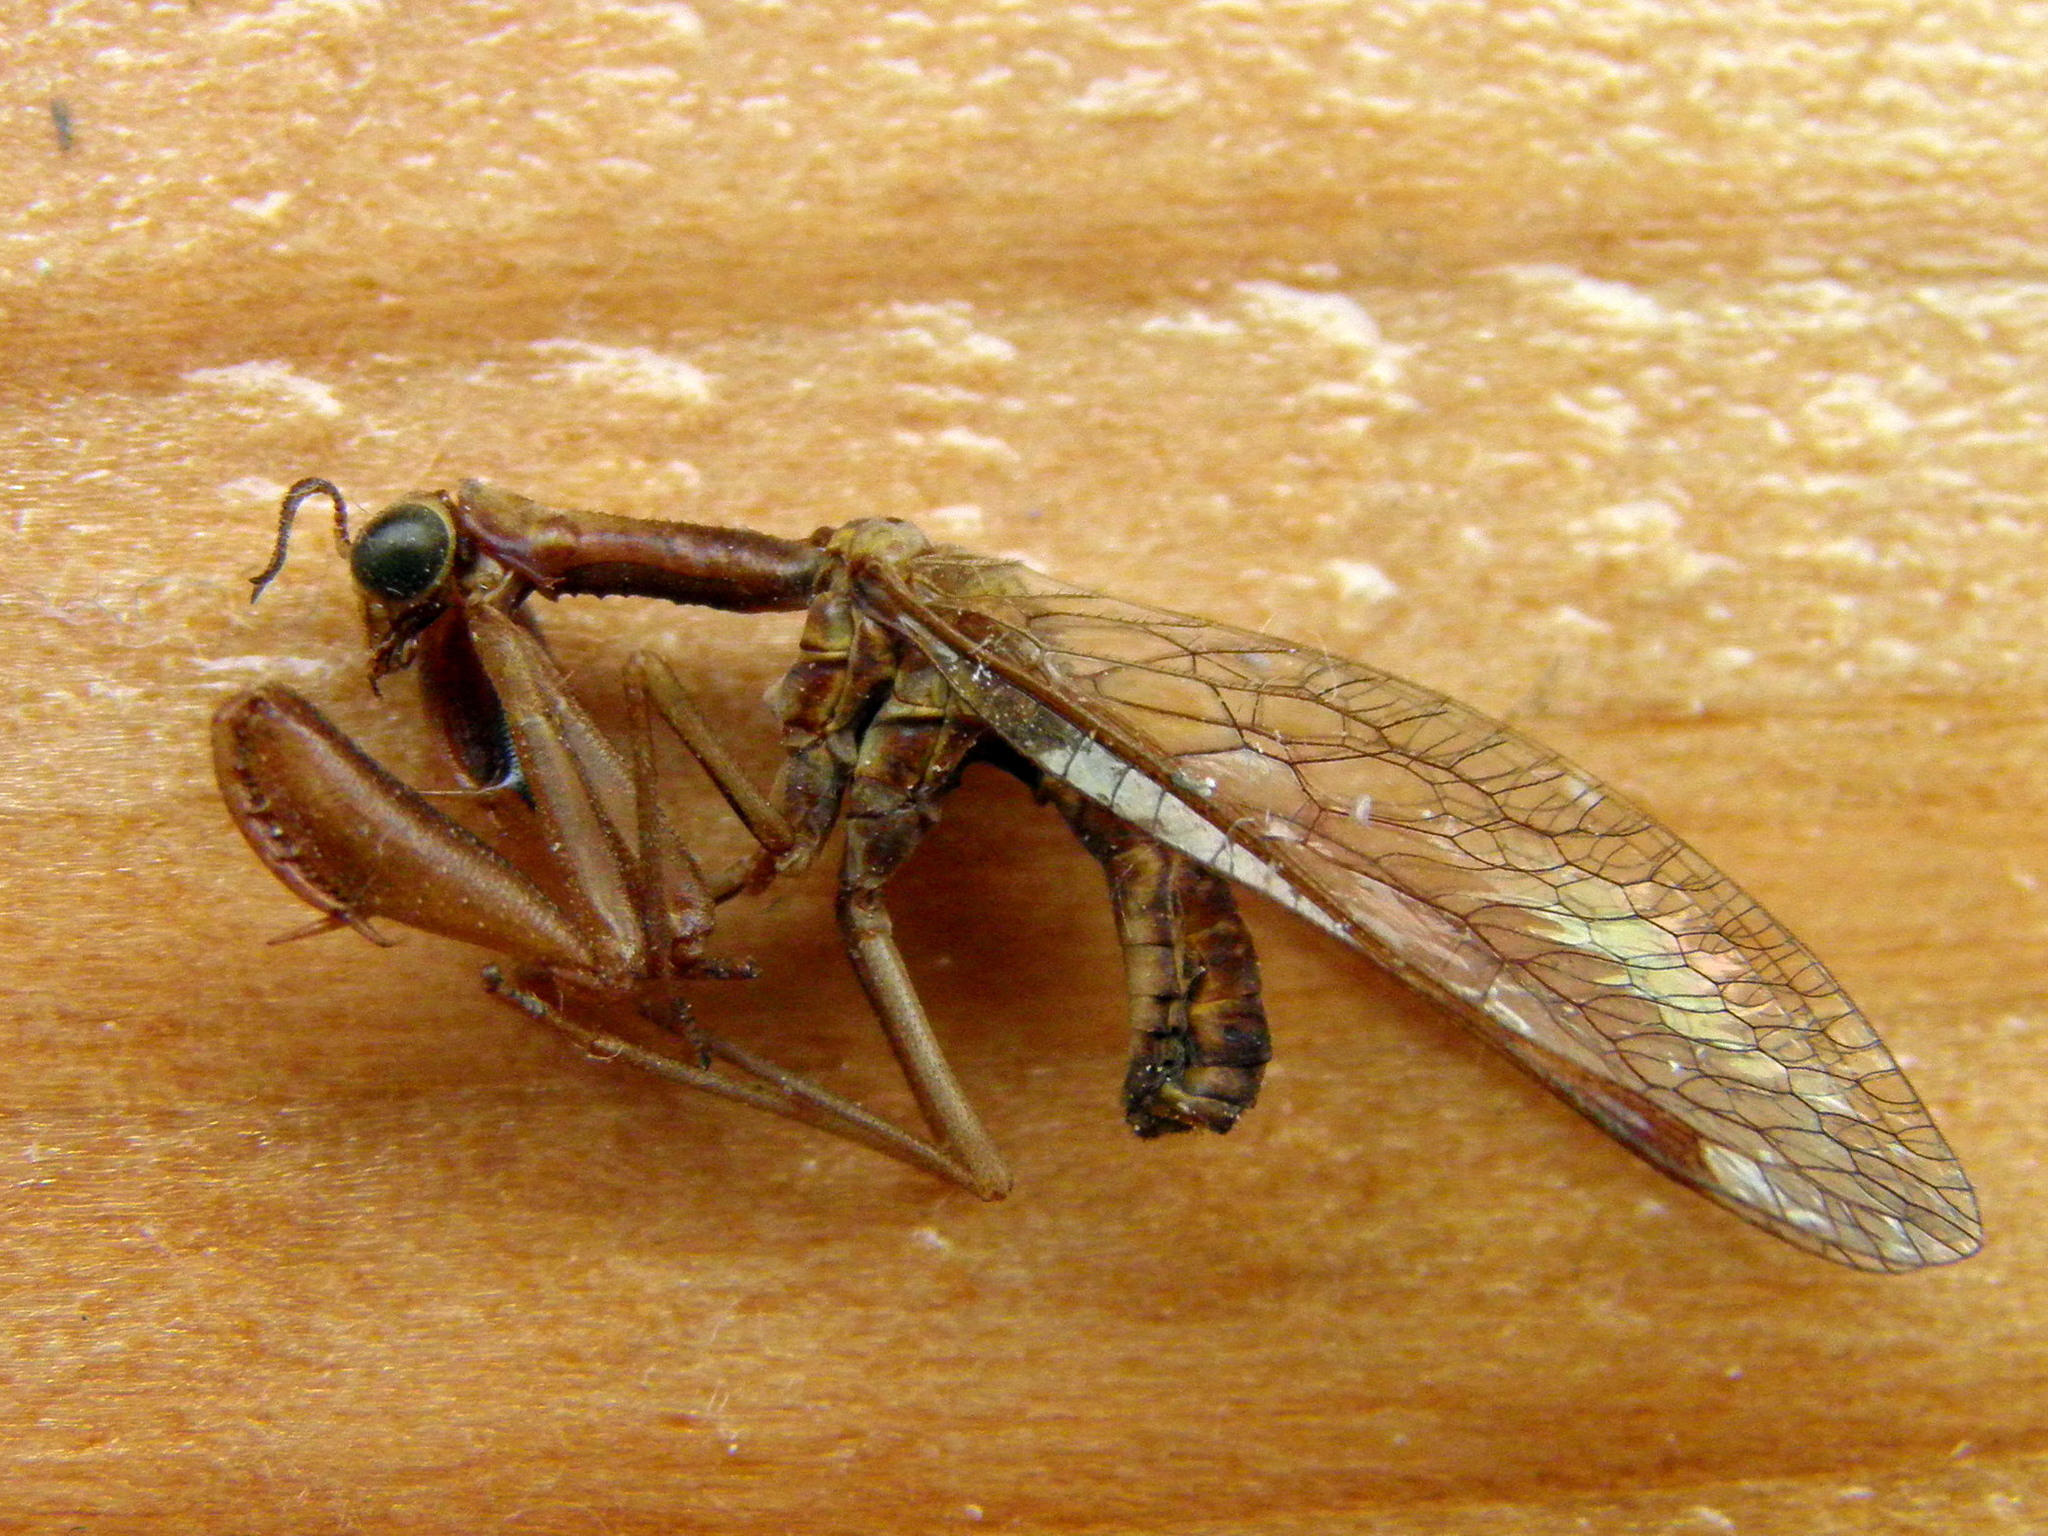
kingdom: Animalia
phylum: Arthropoda
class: Insecta
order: Neuroptera
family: Mantispidae
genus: Mantispa
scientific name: Mantispa
